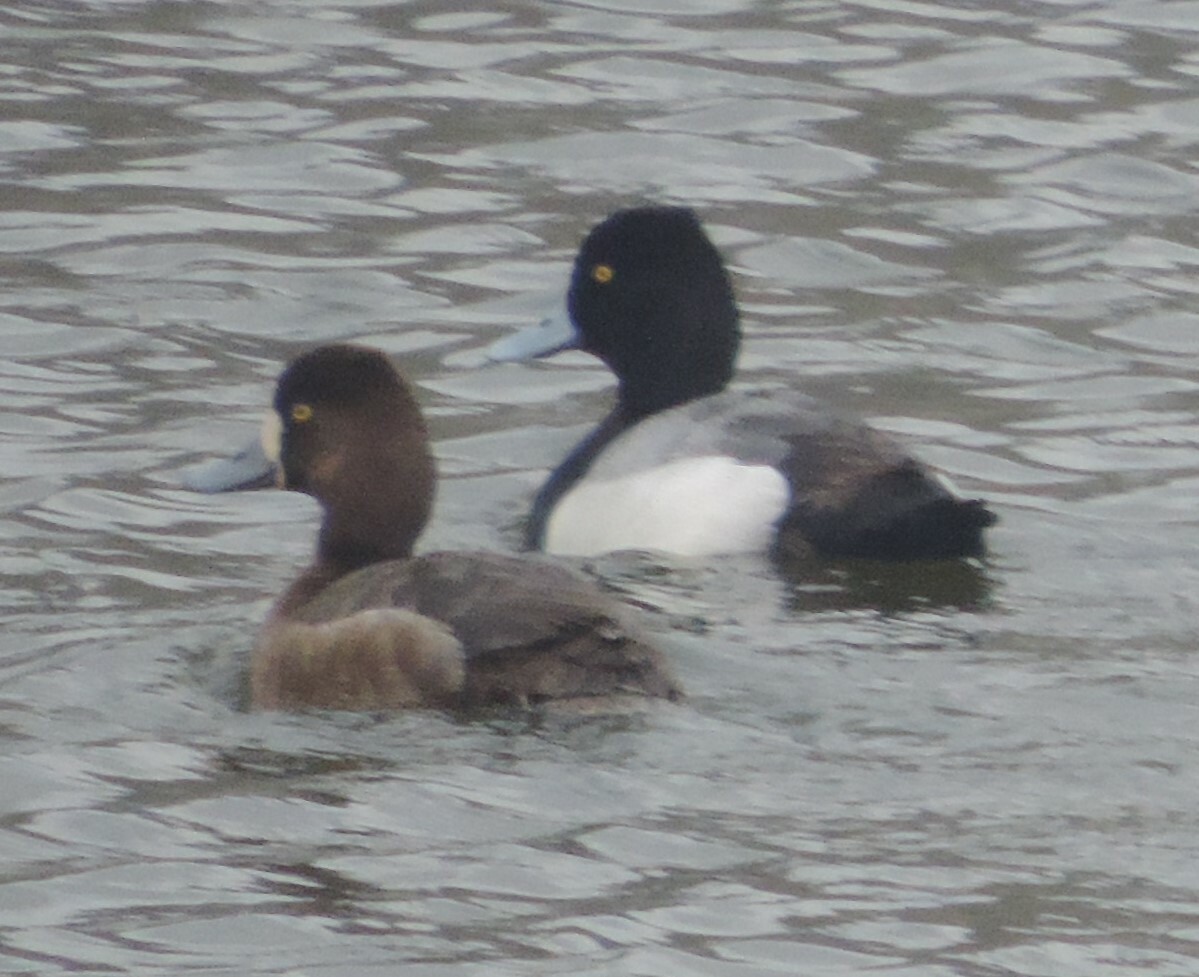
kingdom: Animalia
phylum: Chordata
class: Aves
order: Anseriformes
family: Anatidae
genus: Aythya
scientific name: Aythya affinis
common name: Lesser scaup
